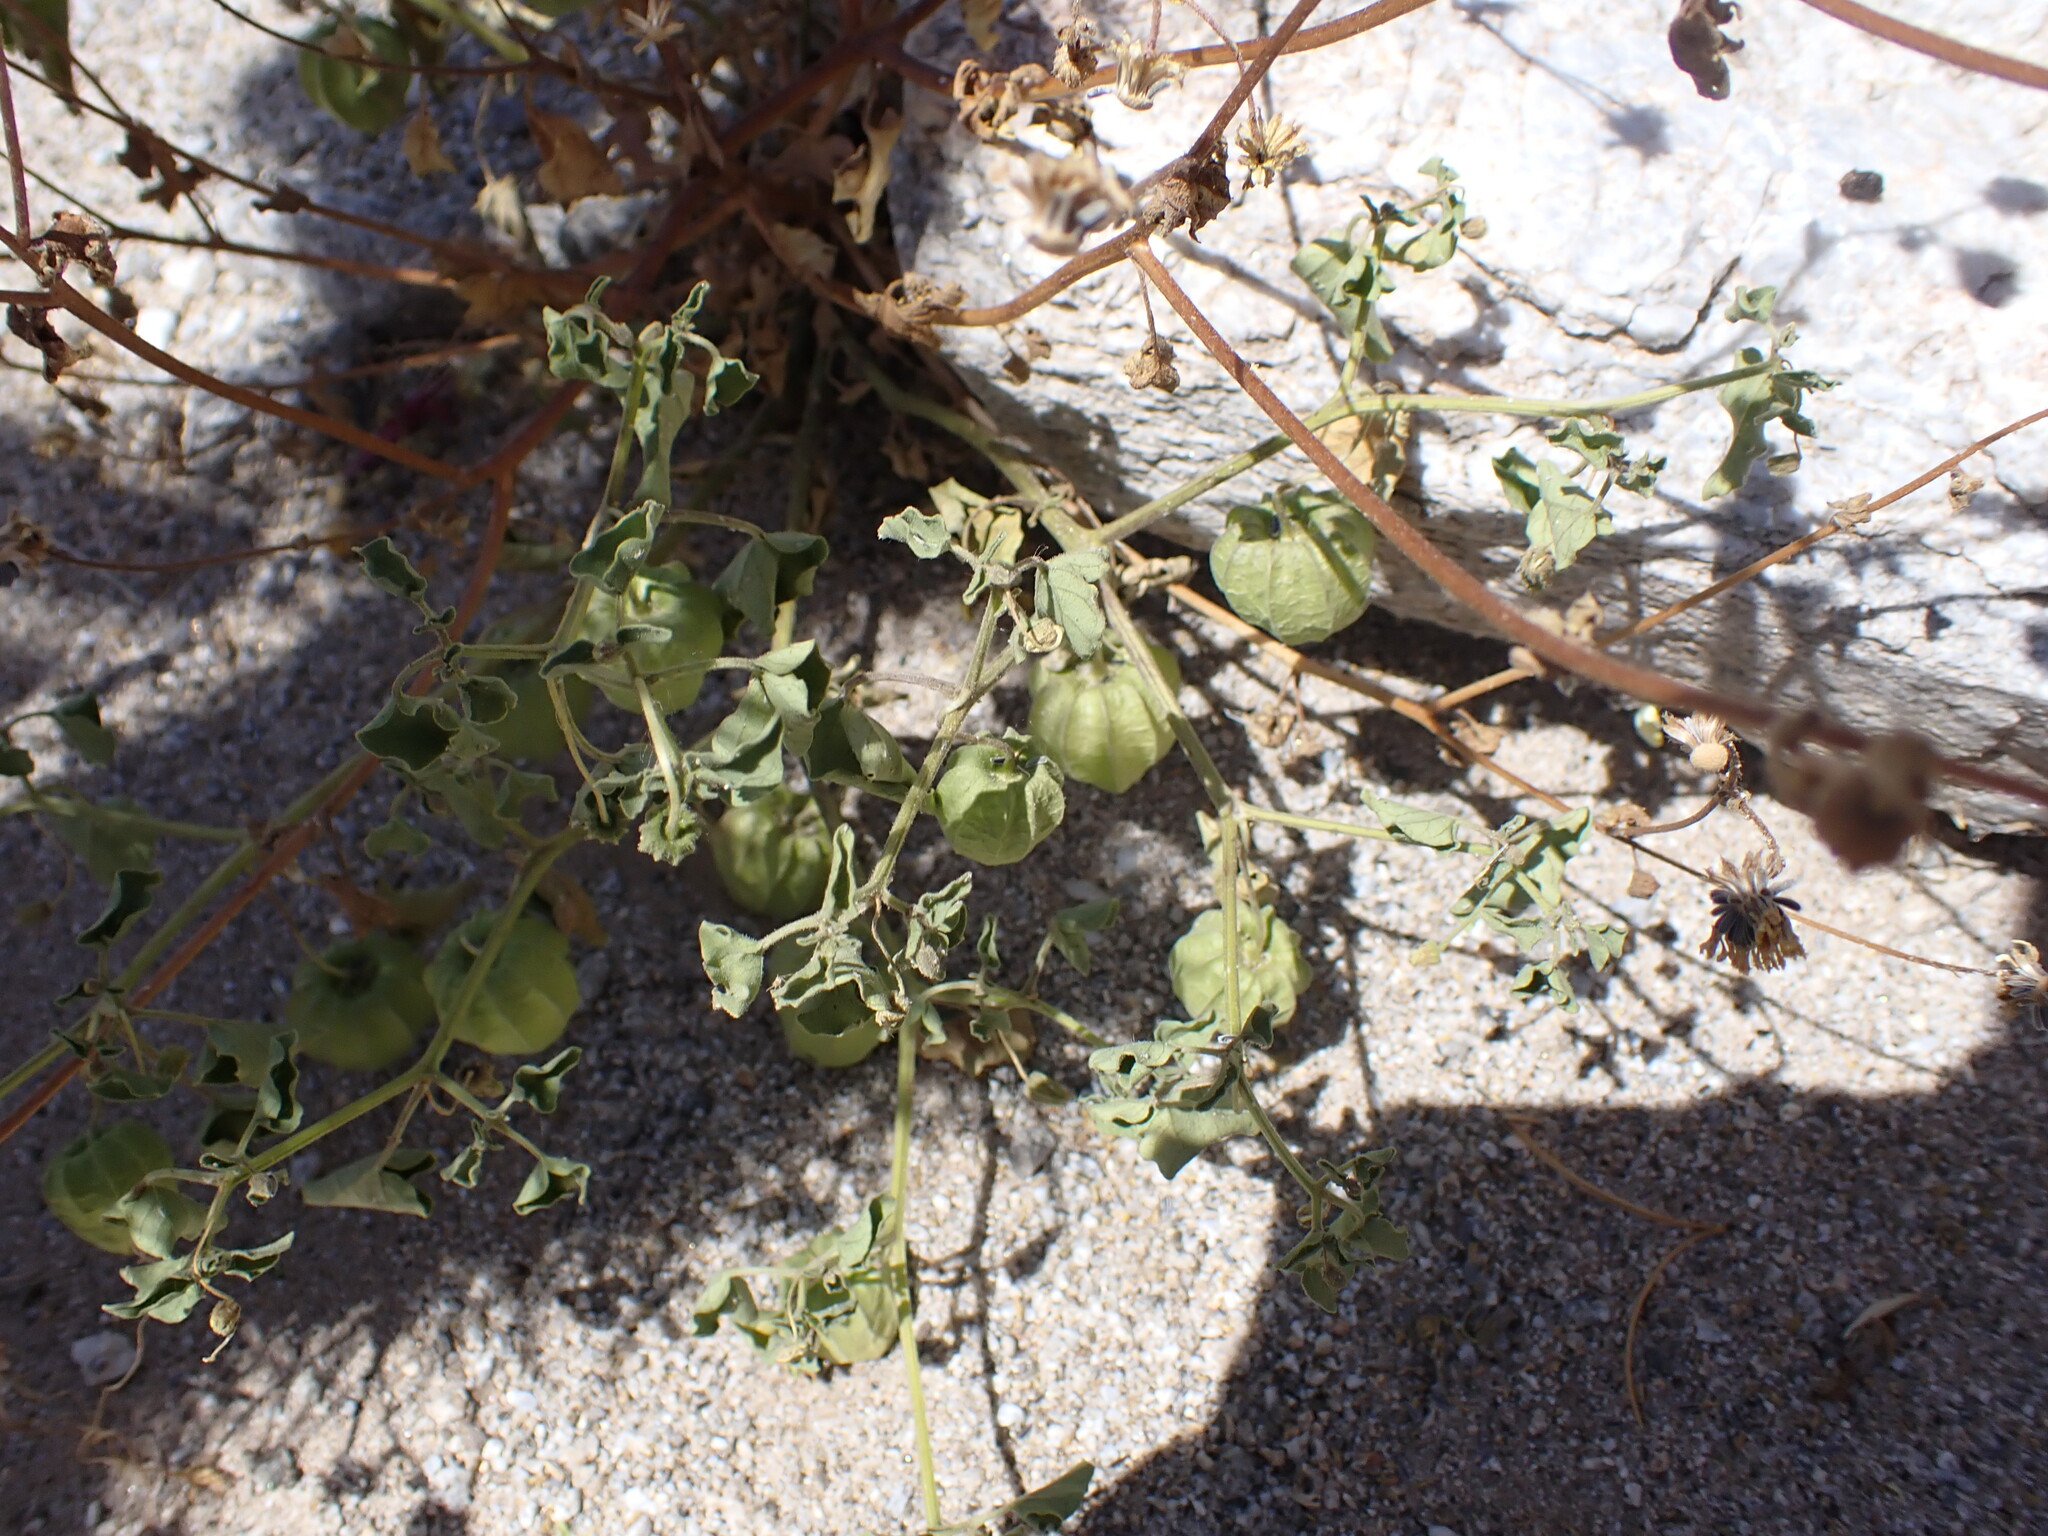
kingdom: Plantae
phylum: Tracheophyta
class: Magnoliopsida
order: Solanales
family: Solanaceae
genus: Physalis
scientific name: Physalis crassifolia
